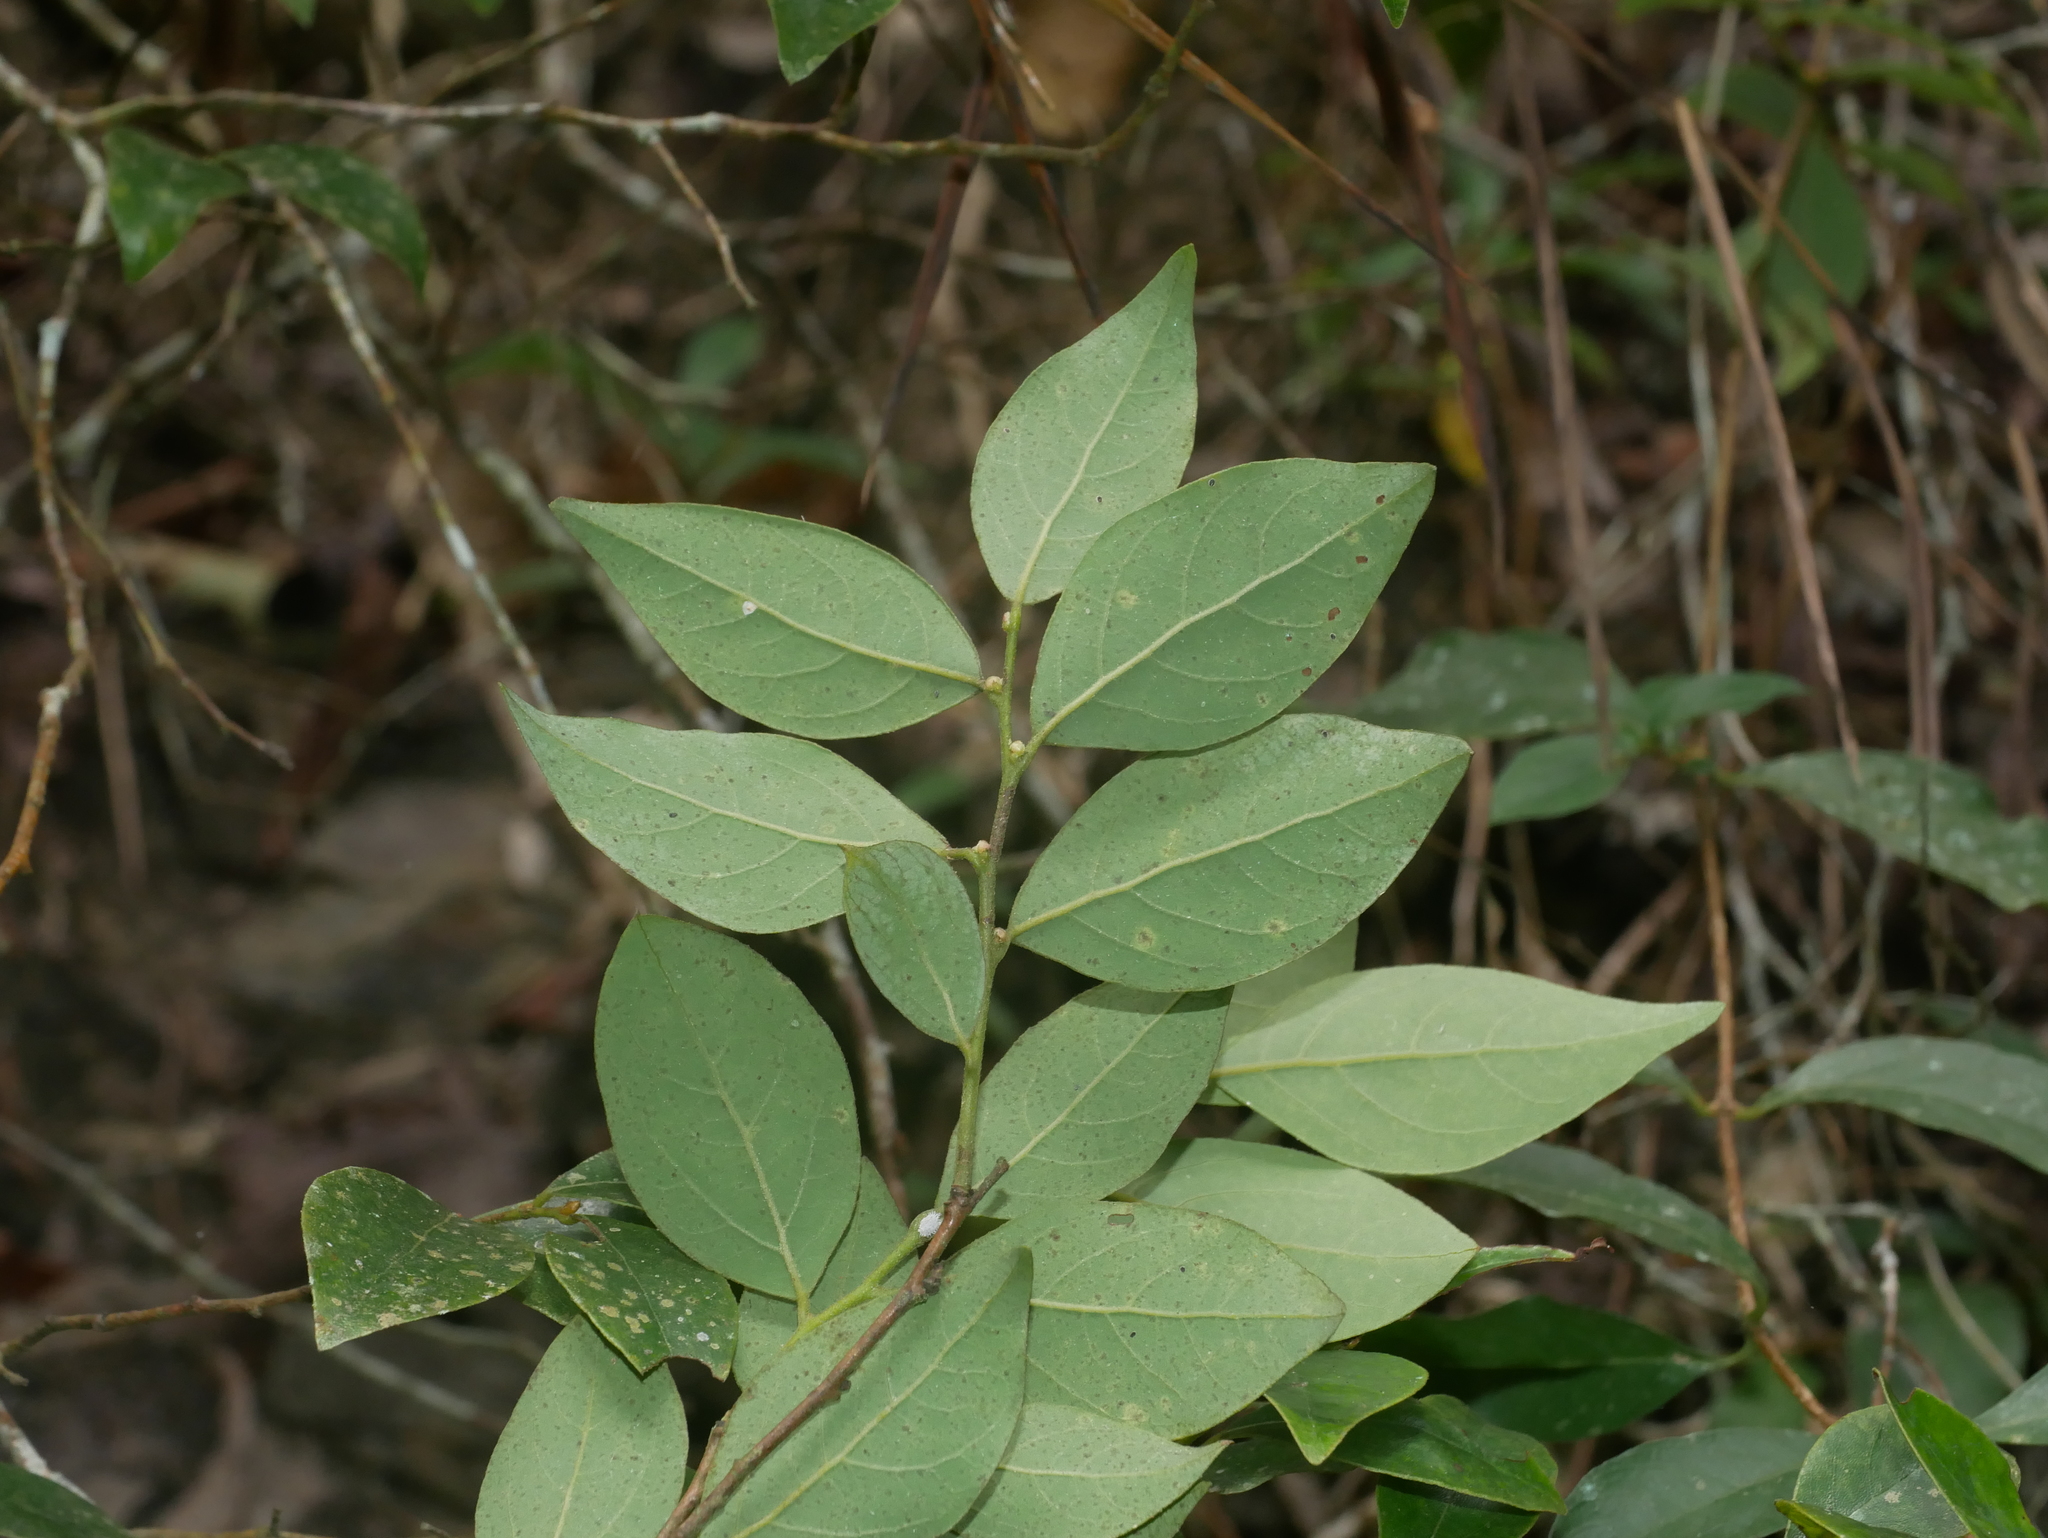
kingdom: Plantae
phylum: Tracheophyta
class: Magnoliopsida
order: Laurales
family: Lauraceae
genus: Lindera
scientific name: Lindera akoensis
